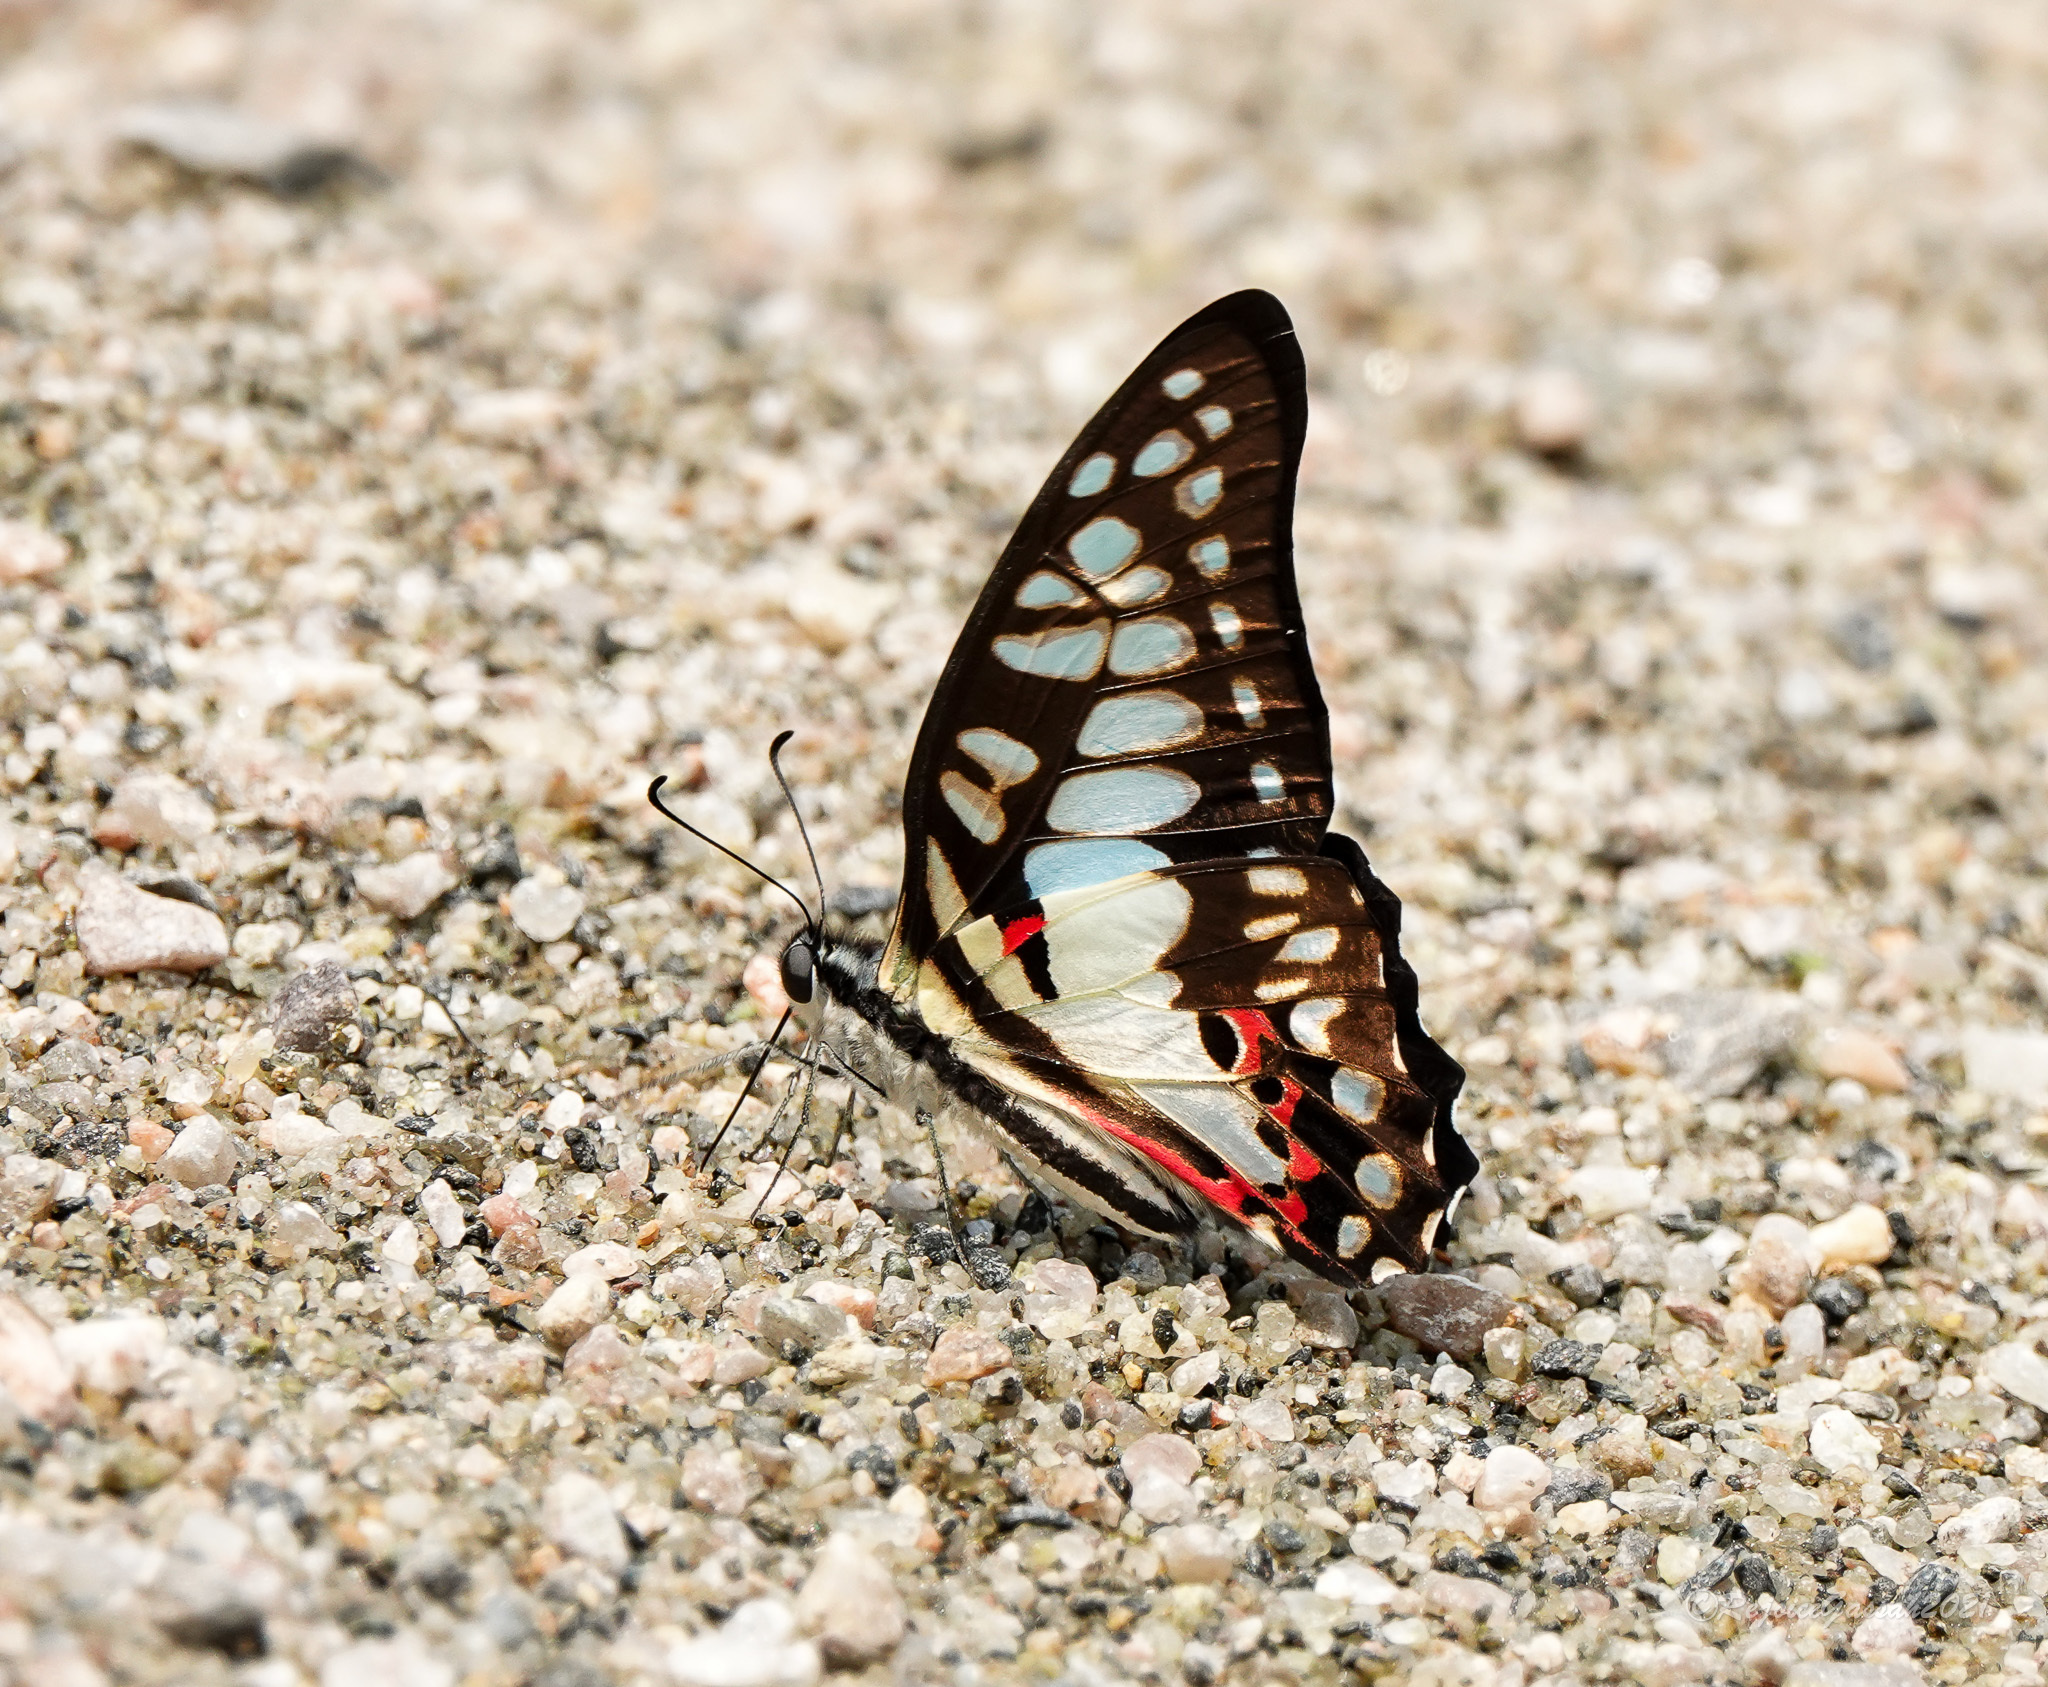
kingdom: Animalia
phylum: Arthropoda
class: Insecta
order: Lepidoptera
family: Papilionidae
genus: Graphium
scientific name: Graphium doson
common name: Common jay
